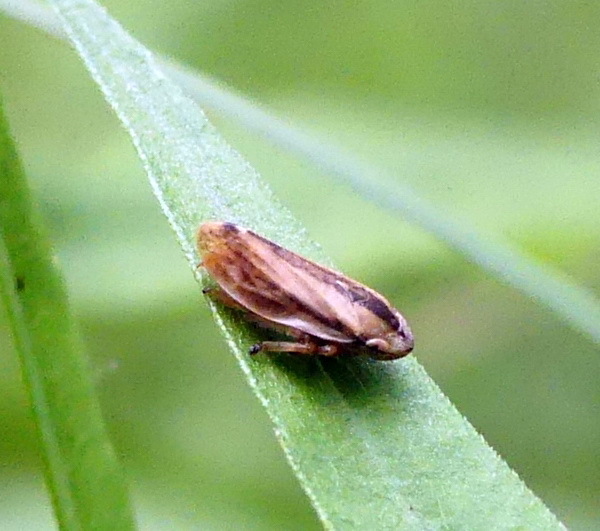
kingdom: Animalia
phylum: Arthropoda
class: Insecta
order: Hemiptera
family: Aphrophoridae
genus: Philaenus
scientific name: Philaenus spumarius
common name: Meadow spittlebug
